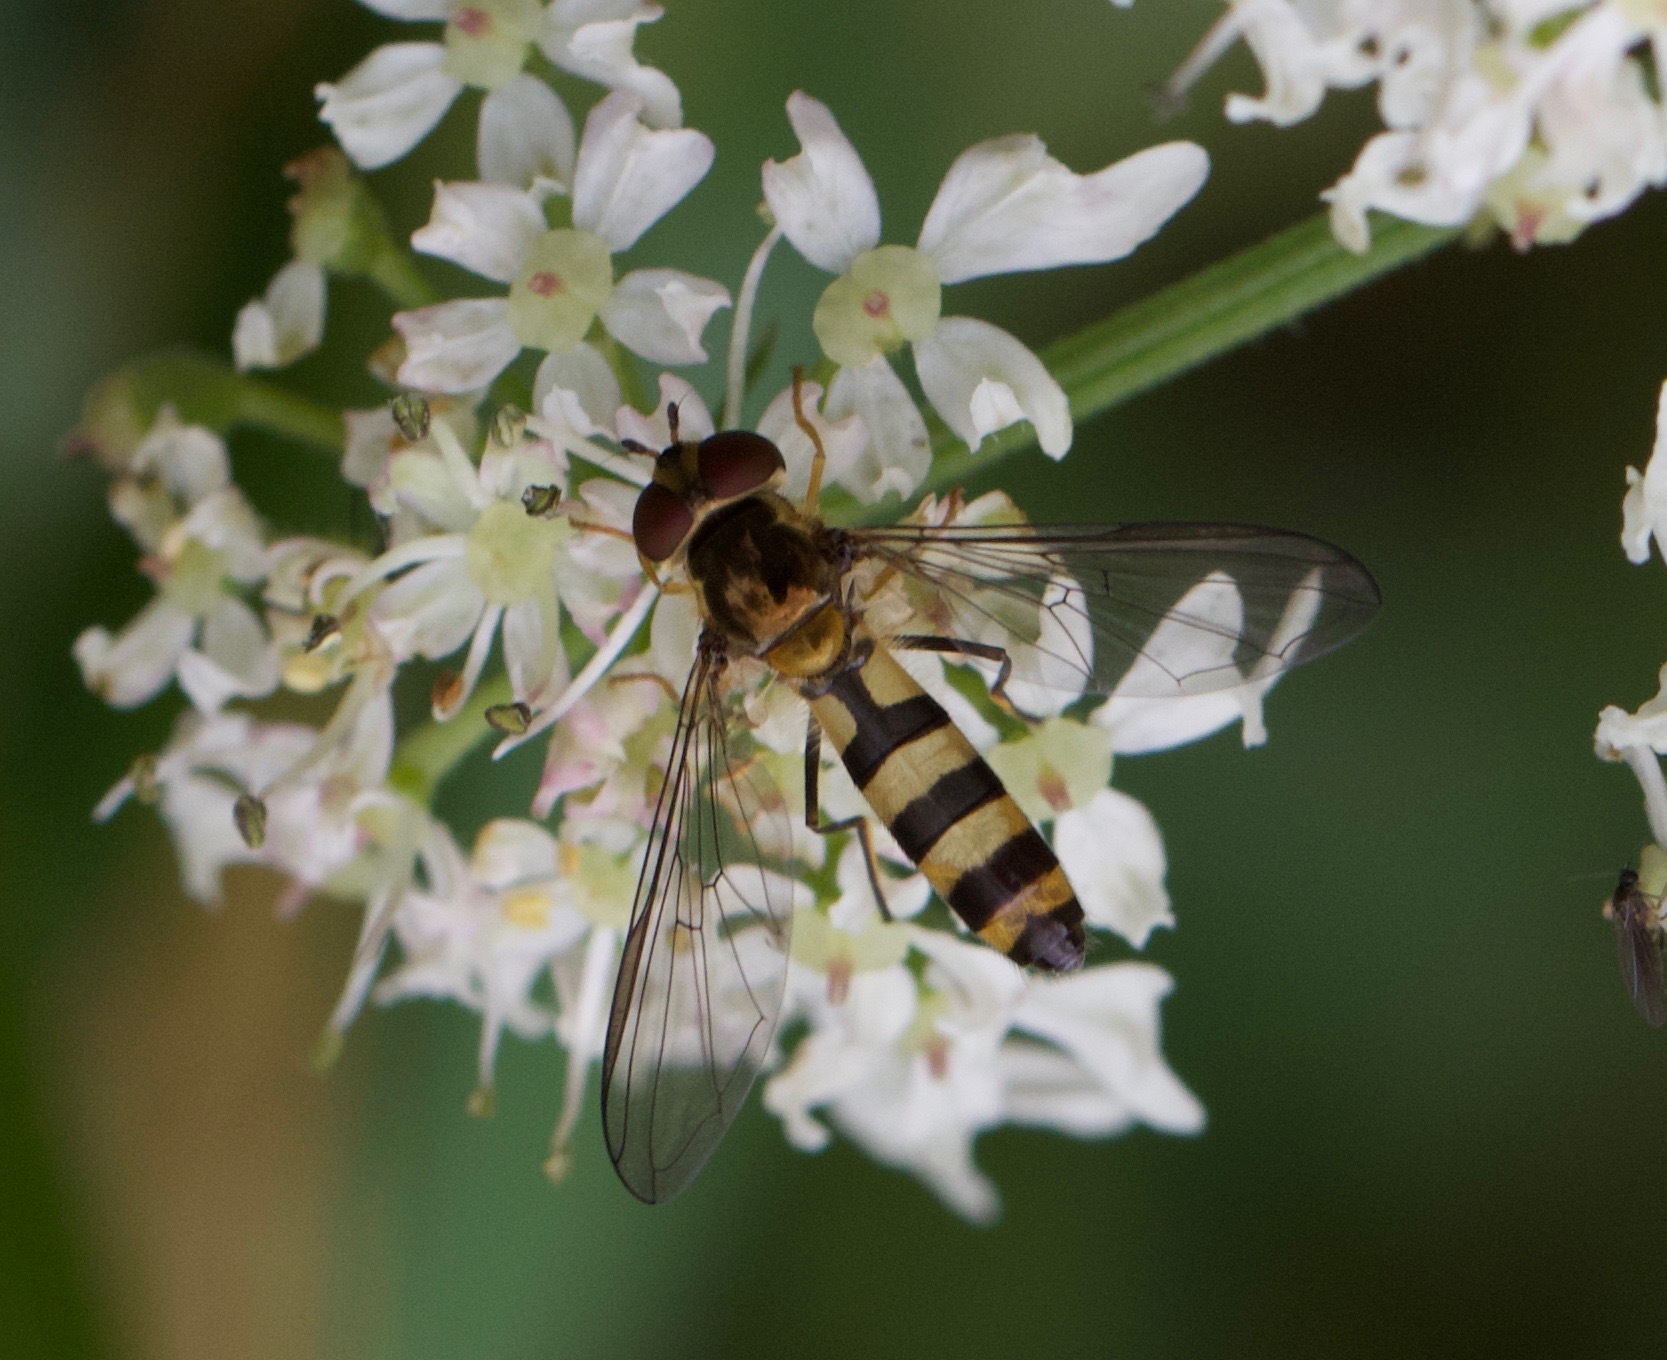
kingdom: Animalia
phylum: Arthropoda
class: Insecta
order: Diptera
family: Syrphidae
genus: Meliscaeva
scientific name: Meliscaeva cinctella
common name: American thintail fly
